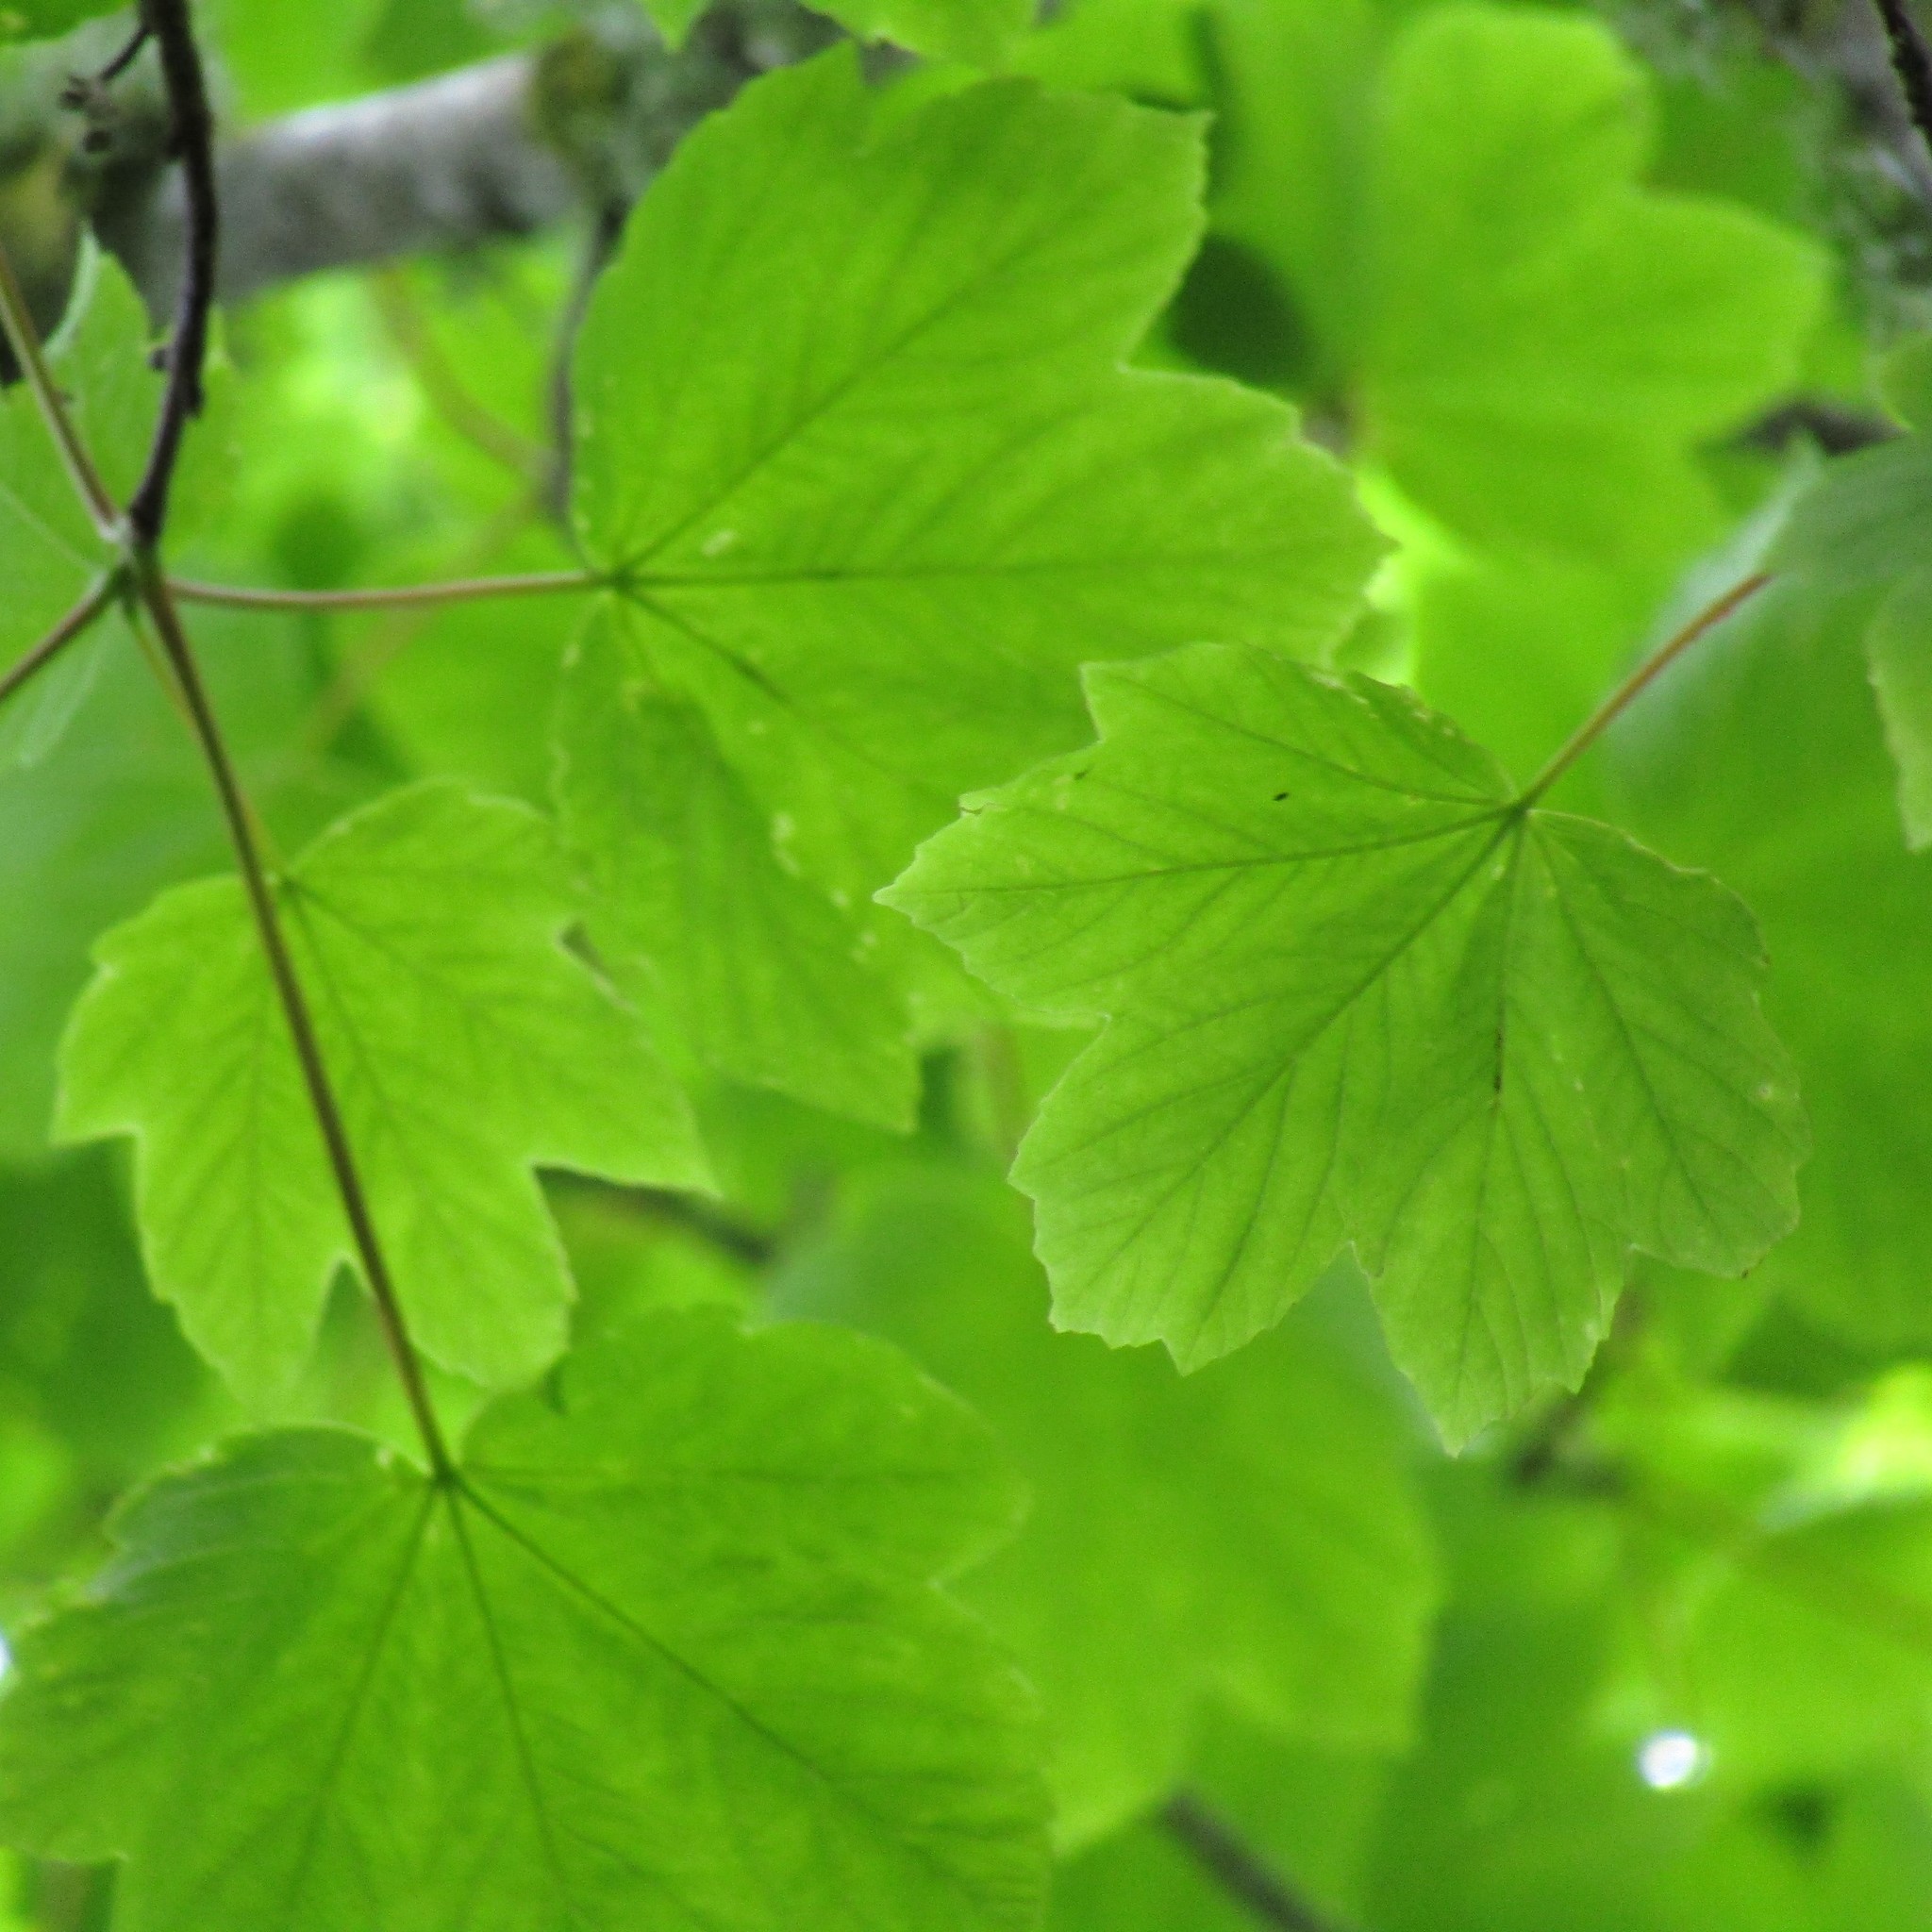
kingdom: Plantae
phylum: Tracheophyta
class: Magnoliopsida
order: Sapindales
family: Sapindaceae
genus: Acer
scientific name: Acer pseudoplatanus
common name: Sycamore
